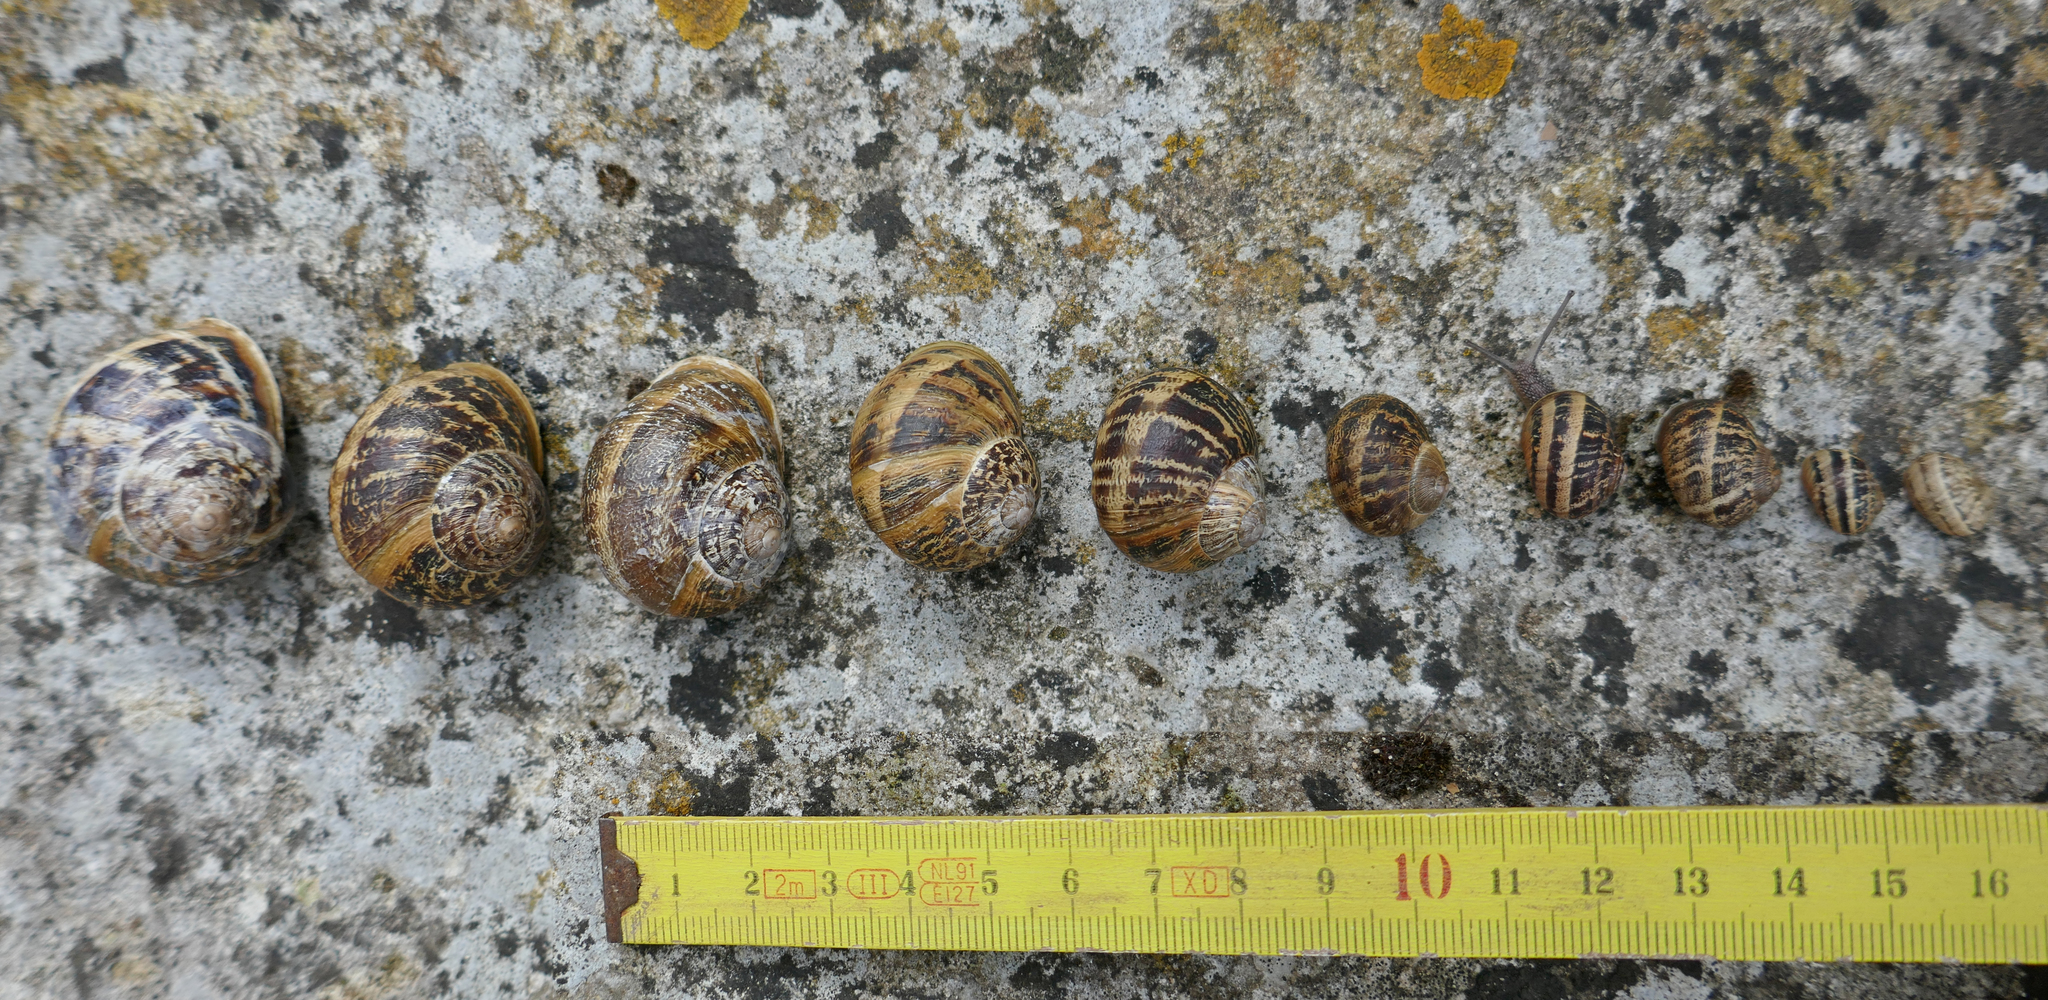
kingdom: Animalia
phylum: Mollusca
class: Gastropoda
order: Stylommatophora
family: Helicidae
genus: Cornu
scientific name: Cornu aspersum
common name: Brown garden snail
